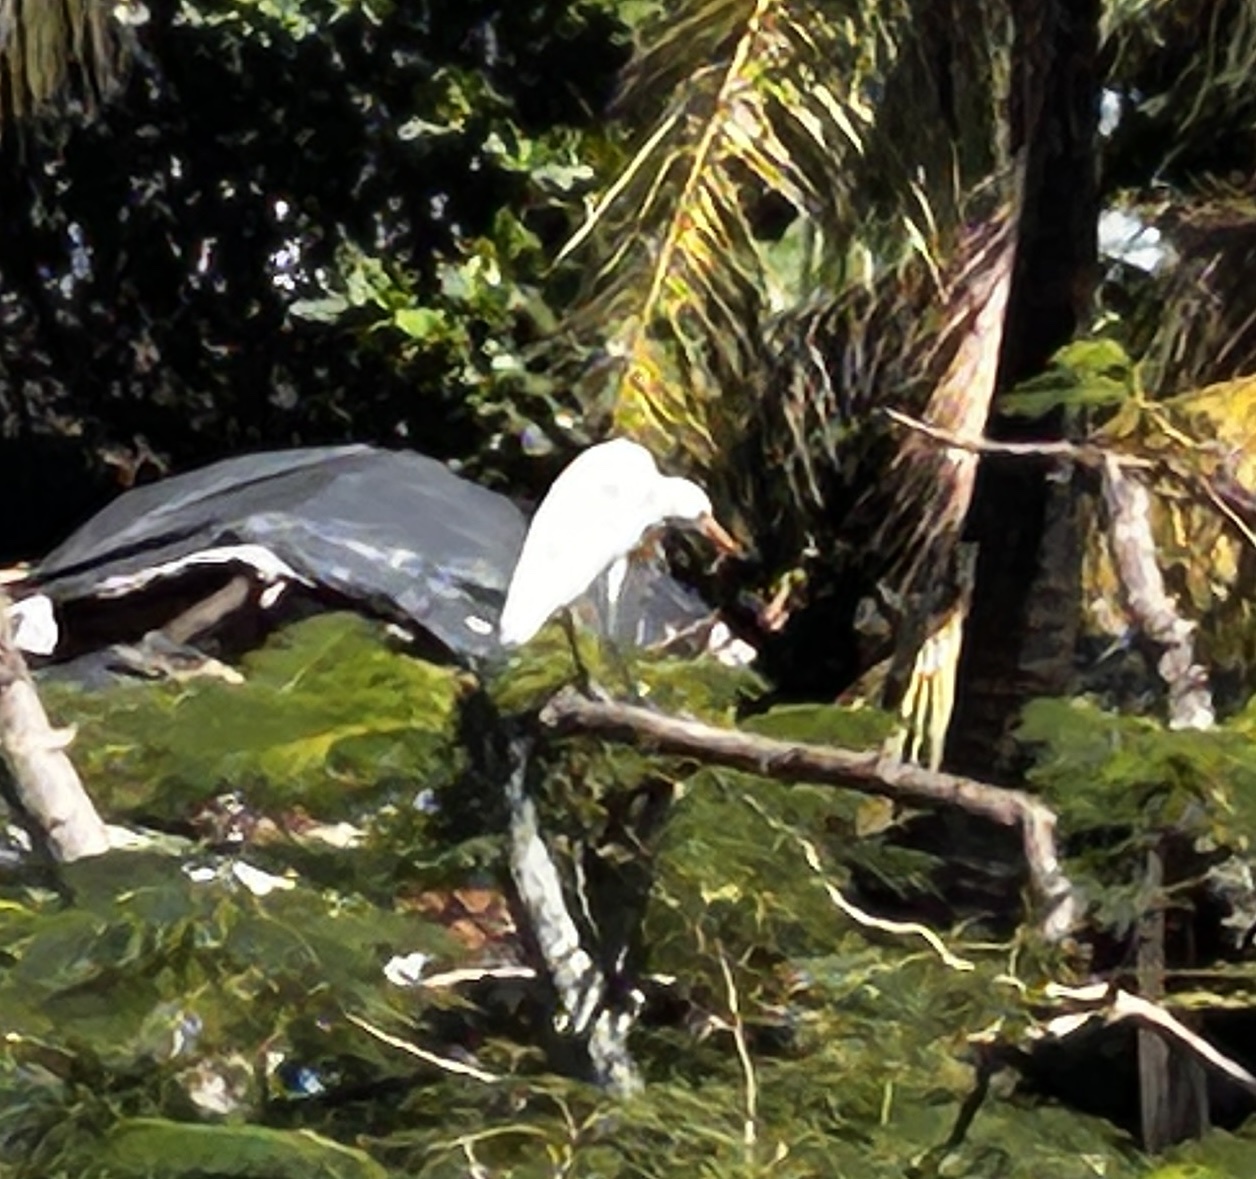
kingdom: Animalia
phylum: Chordata
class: Aves
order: Pelecaniformes
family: Ardeidae
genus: Bubulcus
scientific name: Bubulcus coromandus
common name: Eastern cattle egret
